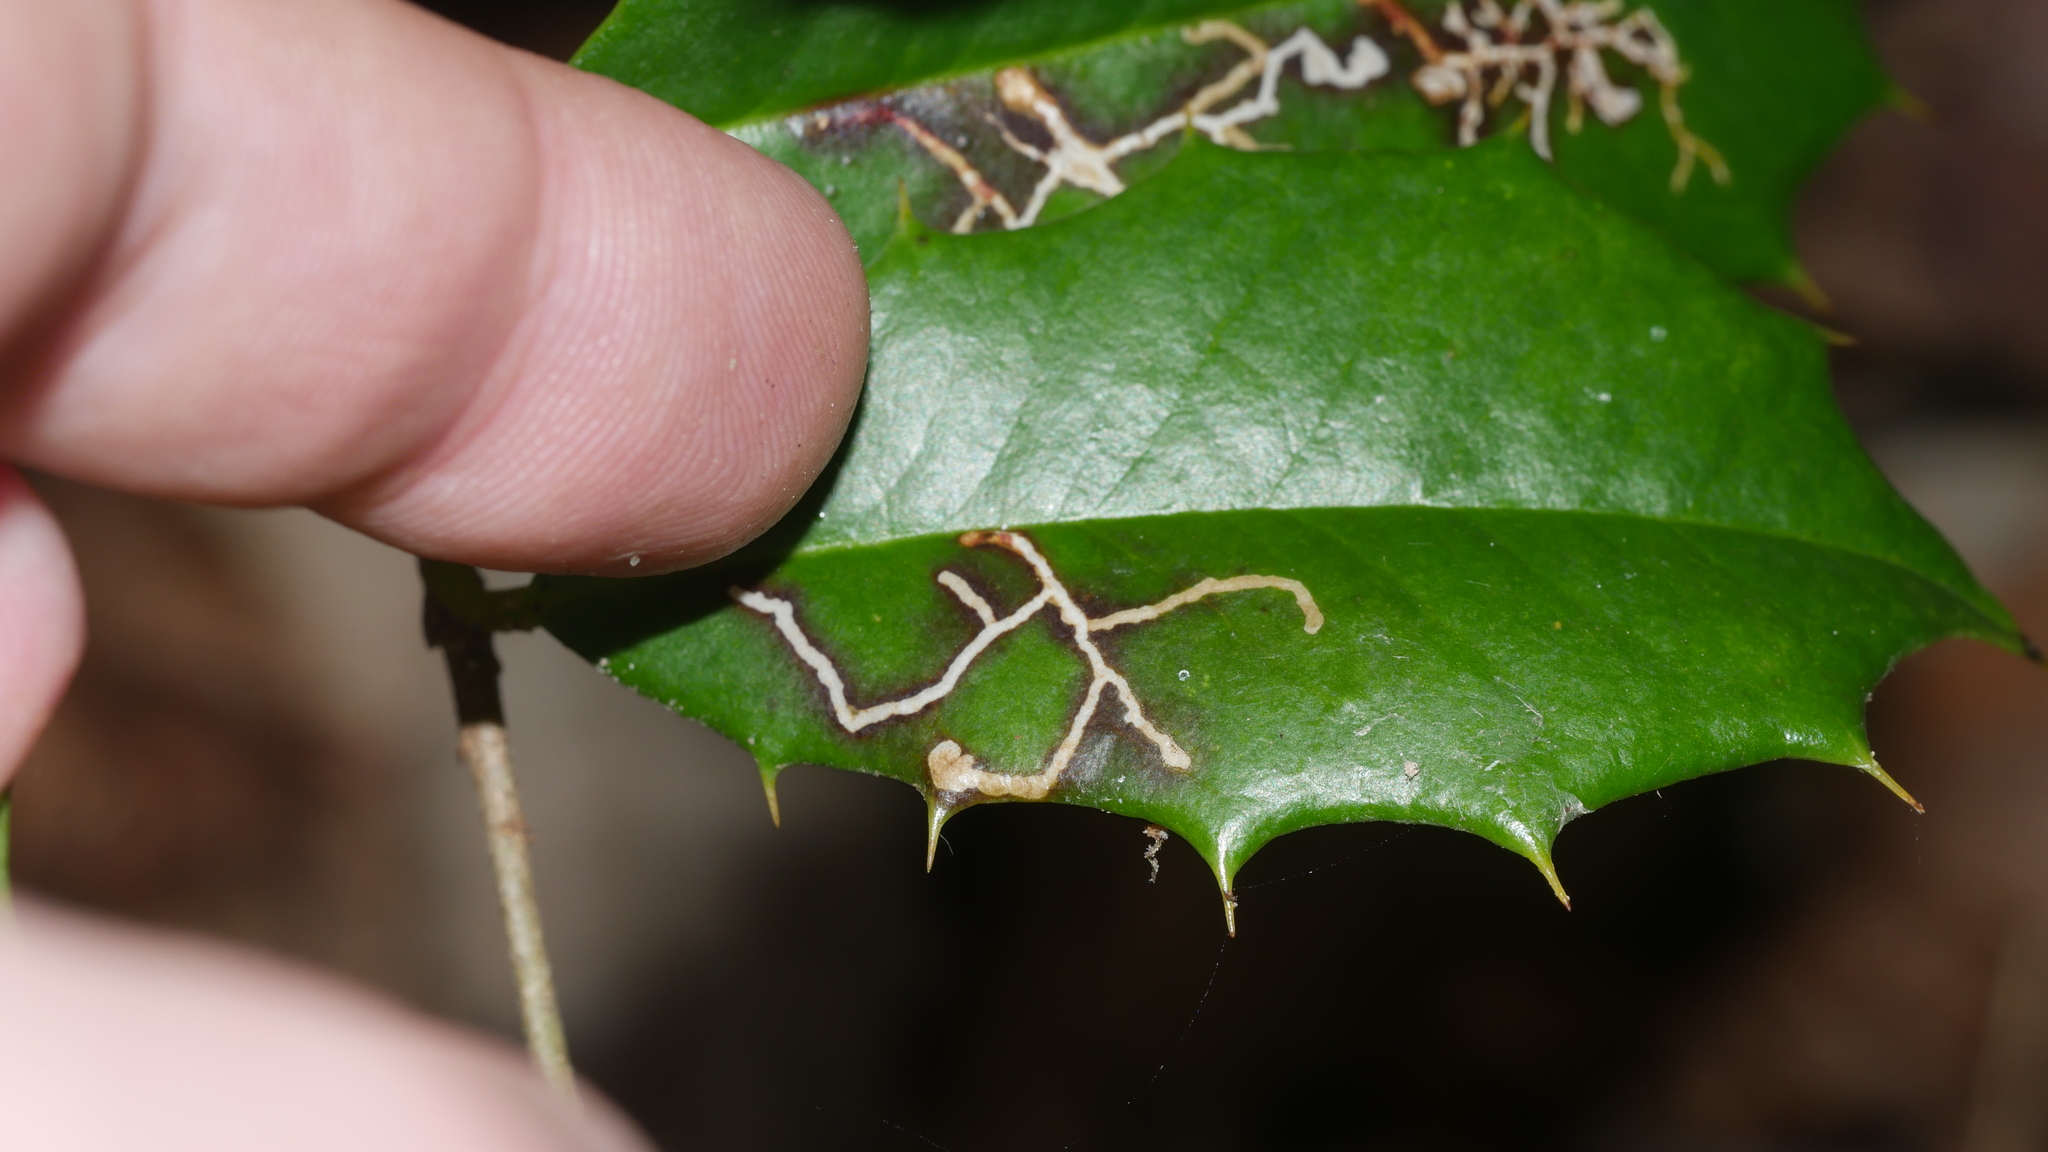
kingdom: Animalia
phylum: Arthropoda
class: Insecta
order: Lepidoptera
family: Tortricidae
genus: Rhopobota
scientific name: Rhopobota
